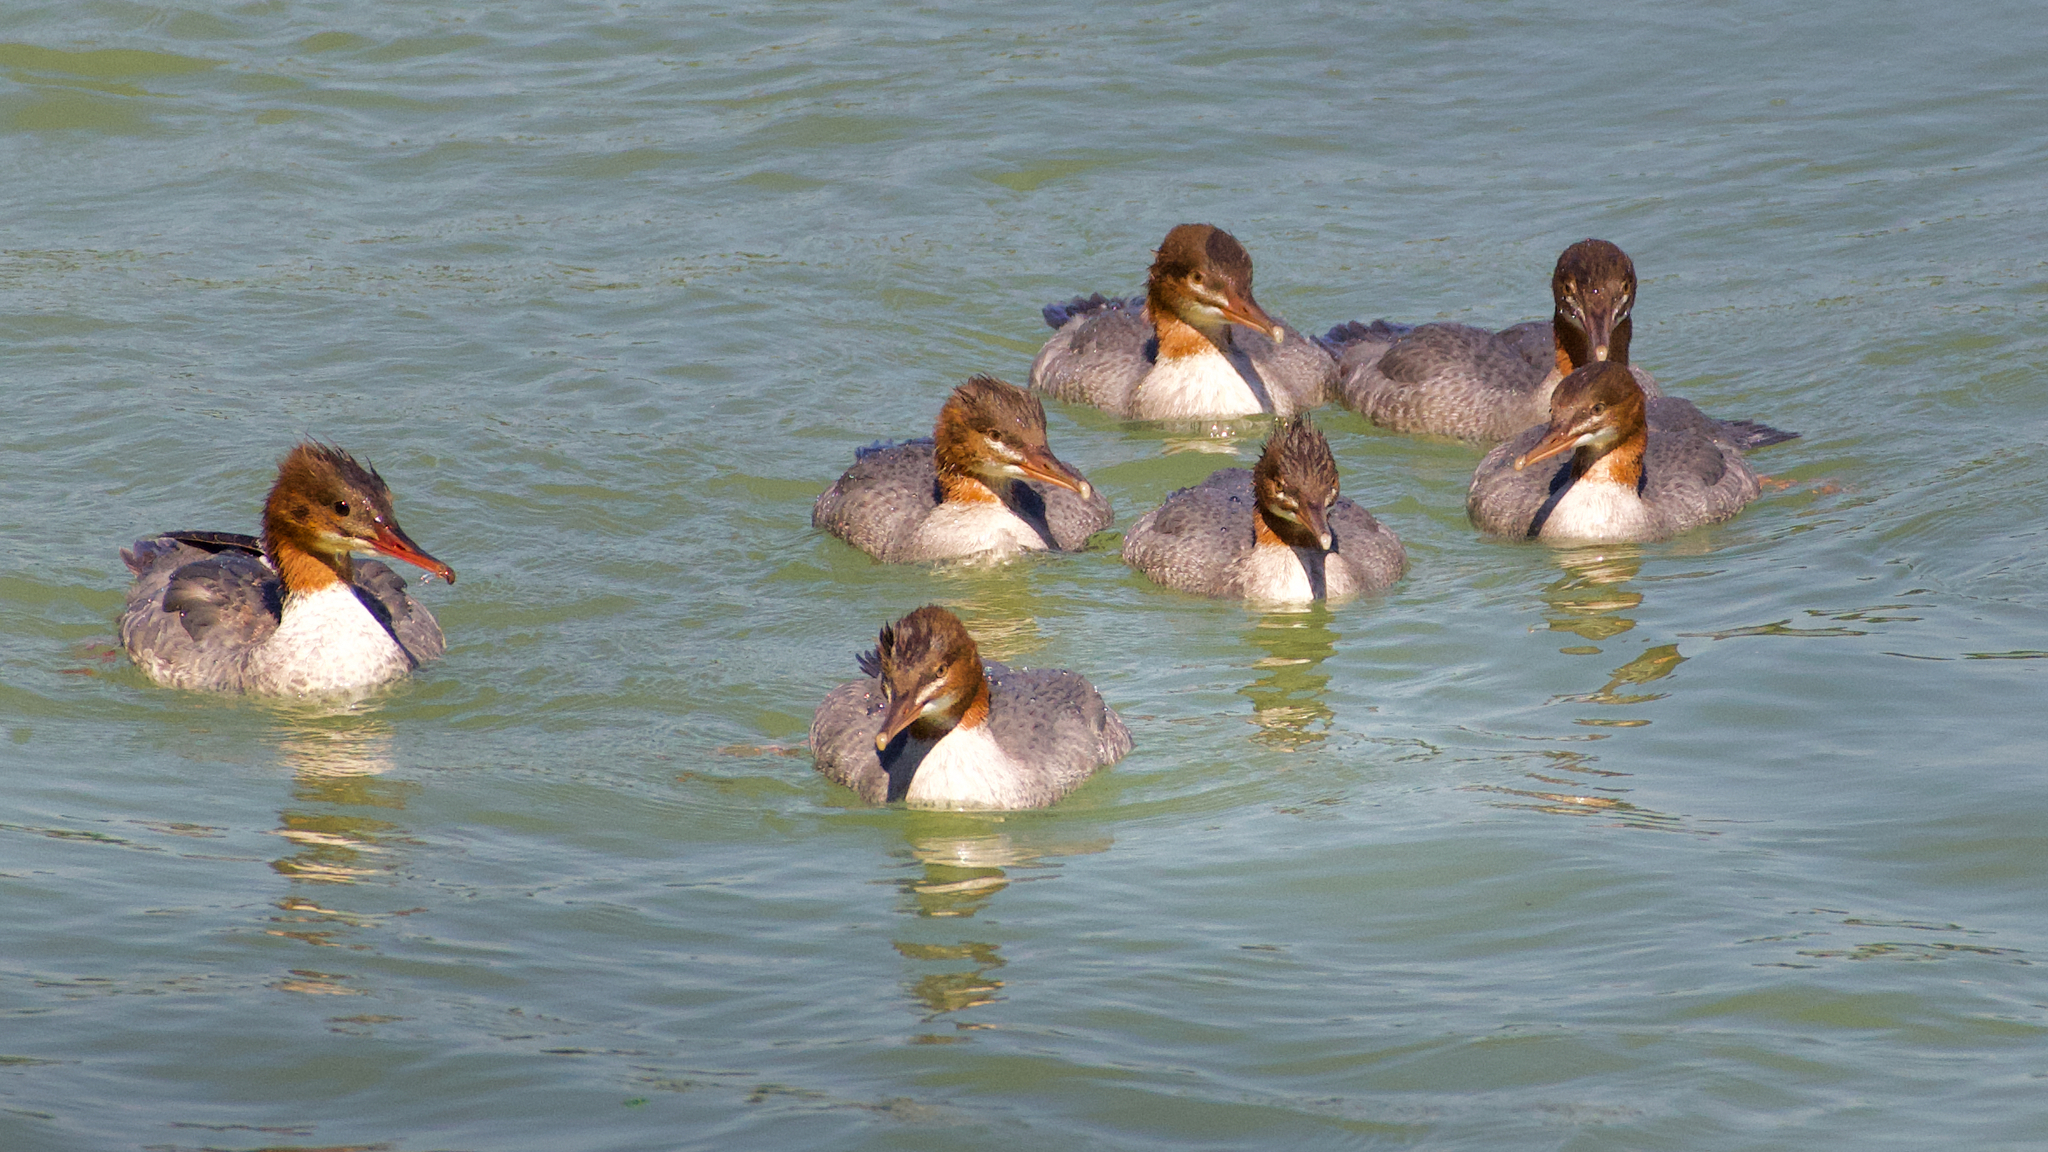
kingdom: Animalia
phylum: Chordata
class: Aves
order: Anseriformes
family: Anatidae
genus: Mergus
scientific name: Mergus merganser
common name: Common merganser
